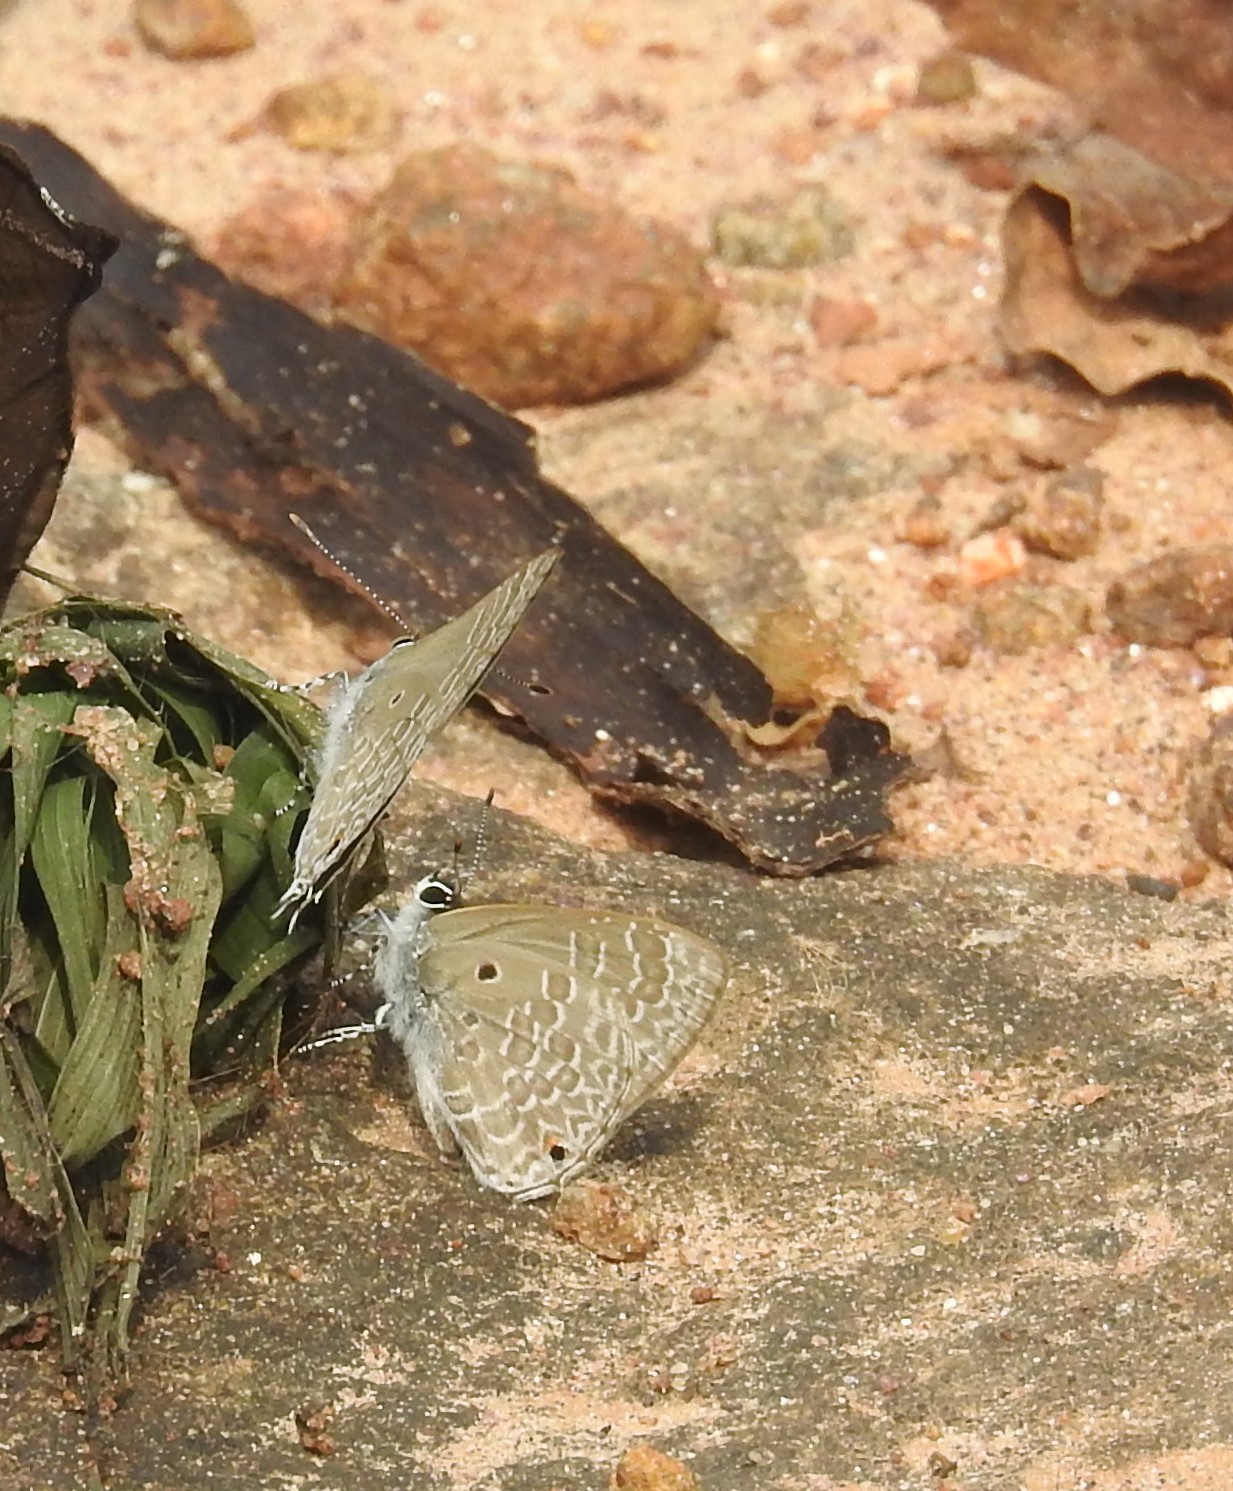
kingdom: Animalia
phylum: Arthropoda
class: Insecta
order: Lepidoptera
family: Lycaenidae
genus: Anthene
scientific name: Anthene lycaenina
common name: Pointed ciliate blue
